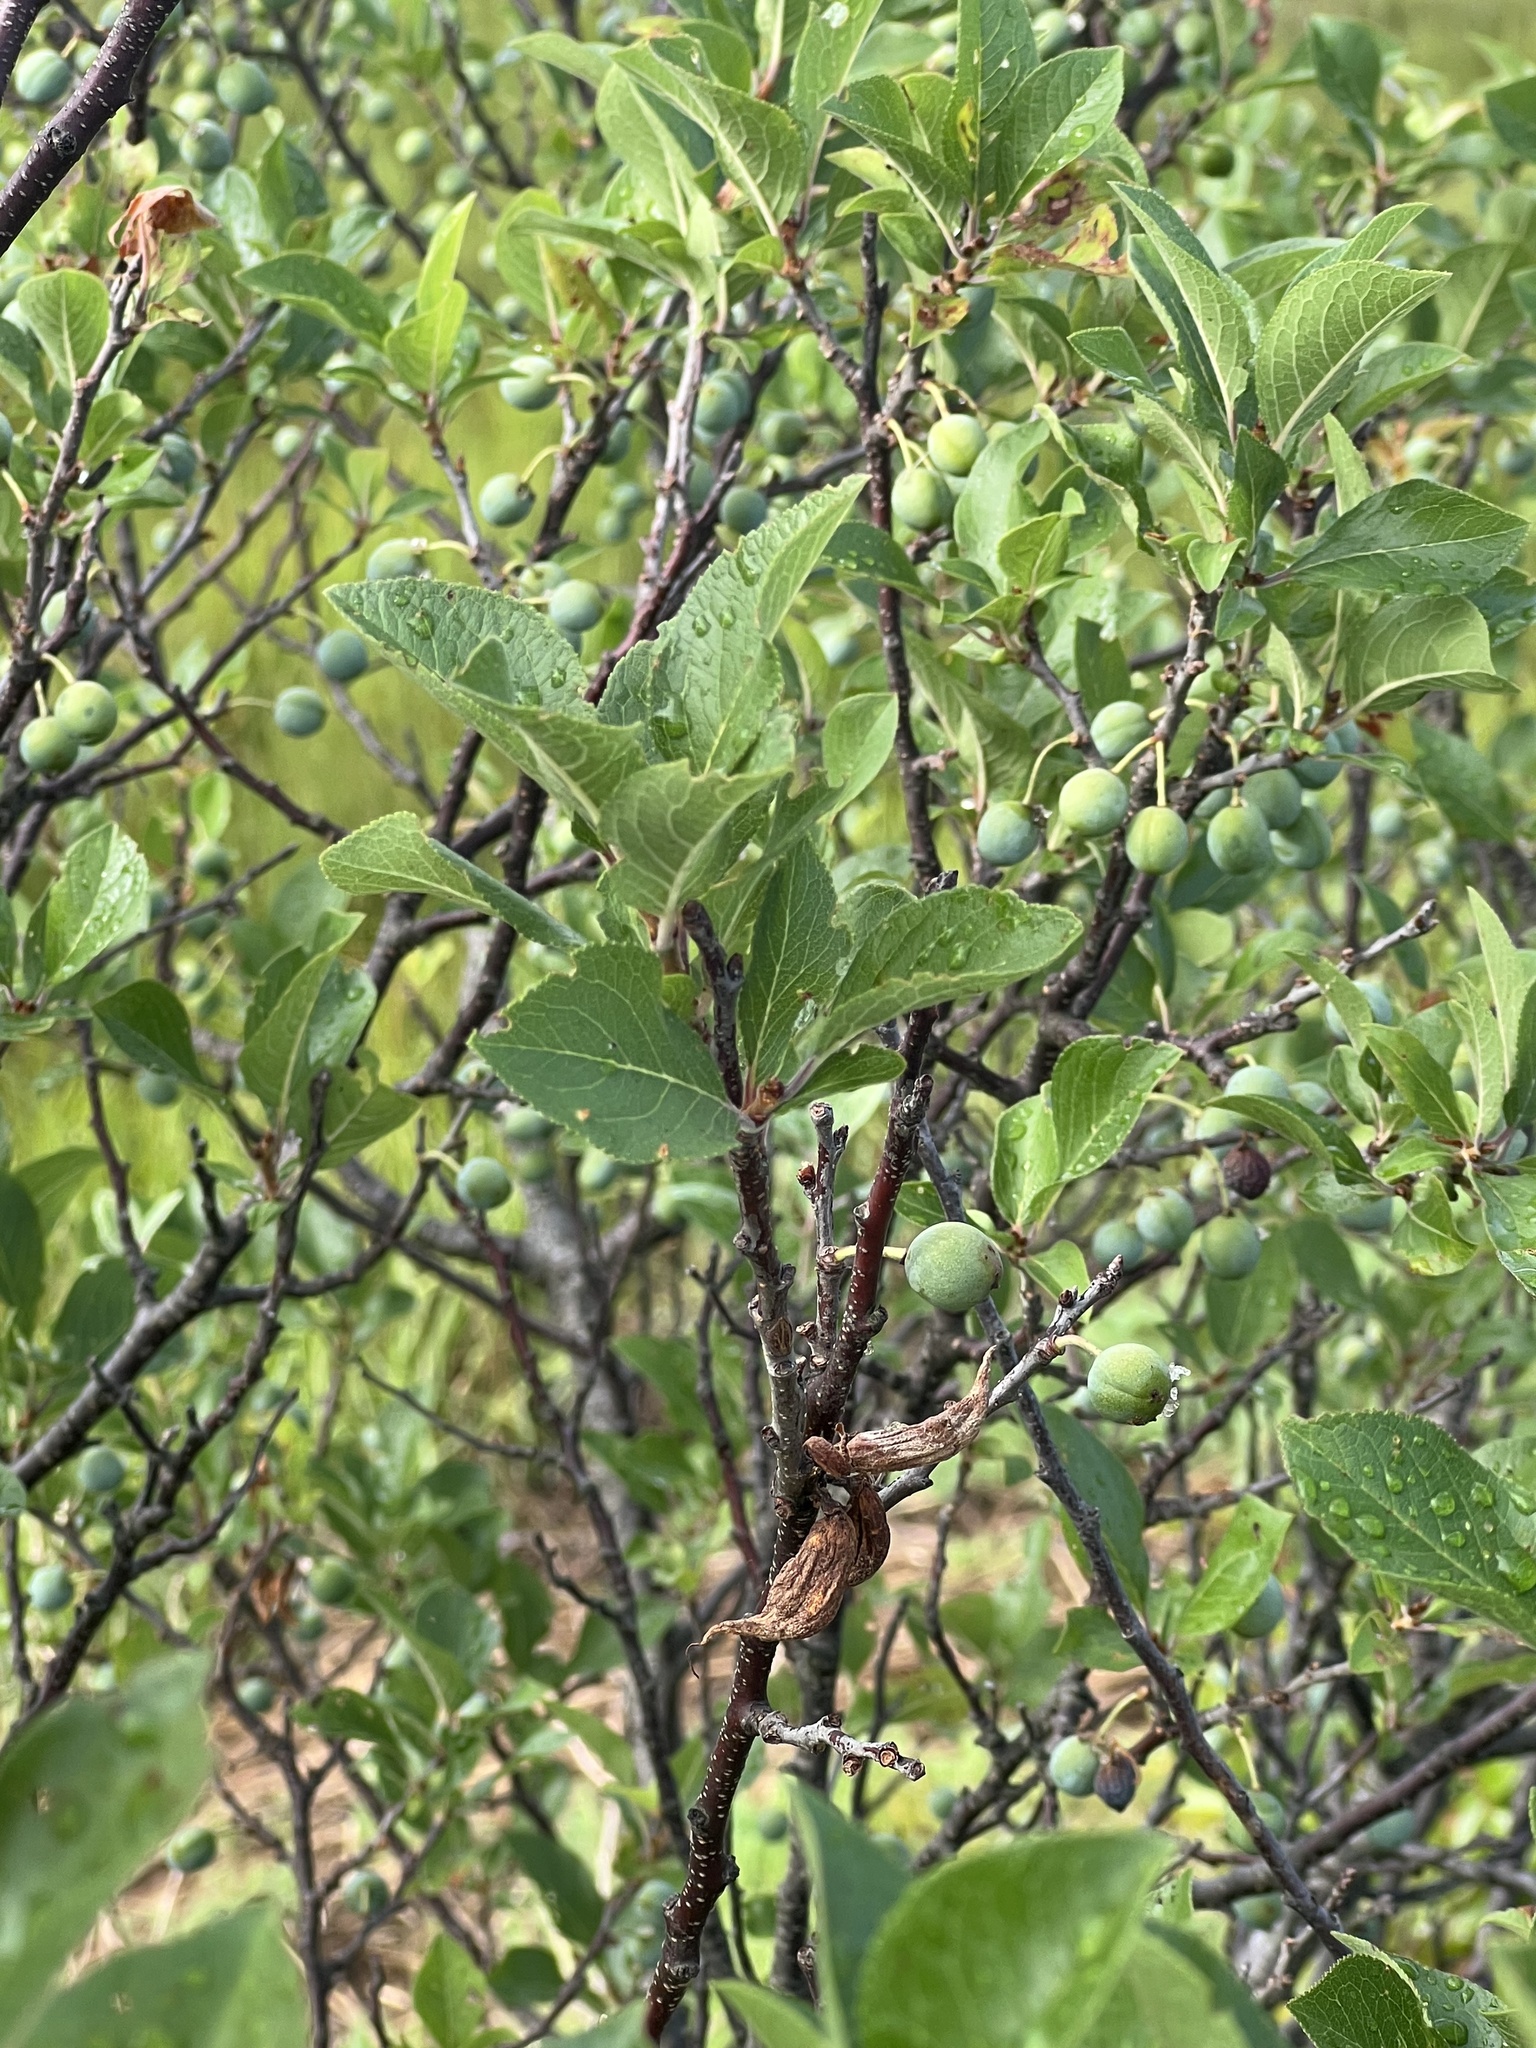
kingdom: Plantae
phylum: Tracheophyta
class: Magnoliopsida
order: Rosales
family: Rosaceae
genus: Prunus
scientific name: Prunus maritima
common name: Beach plum
